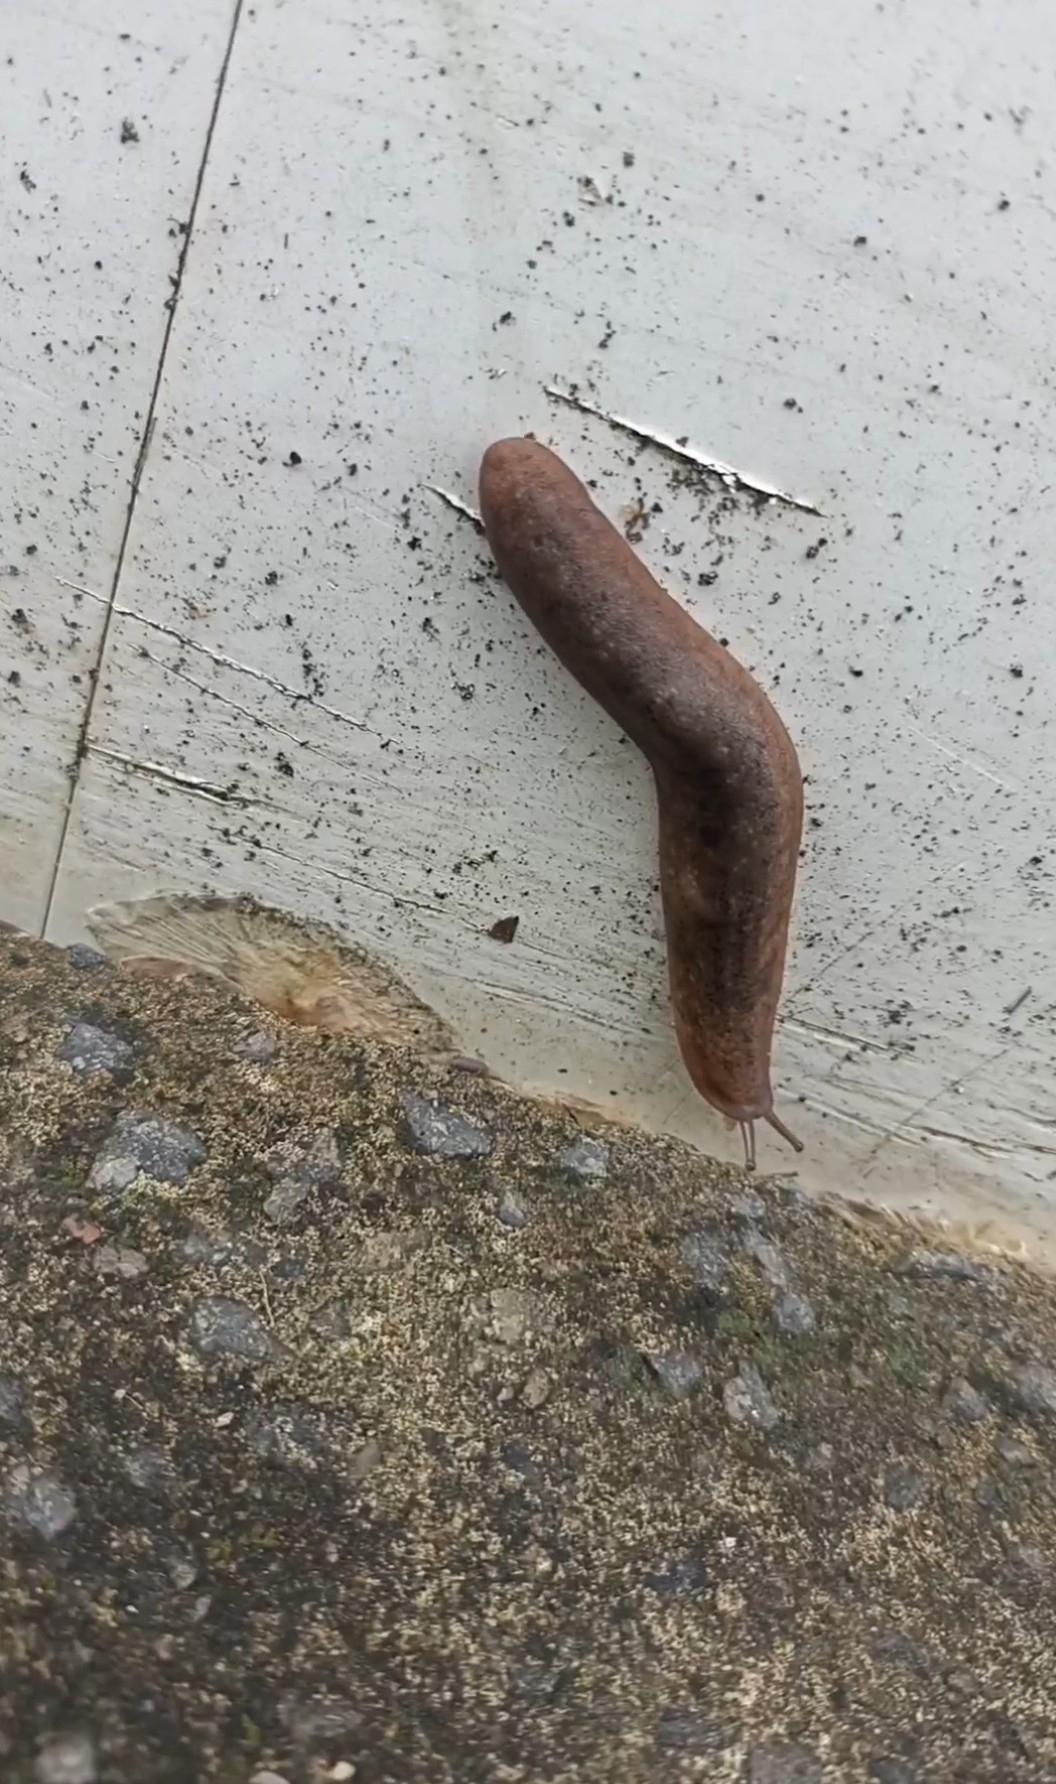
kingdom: Animalia
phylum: Mollusca
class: Gastropoda
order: Systellommatophora
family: Veronicellidae
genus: Sarasinula
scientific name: Sarasinula plebeia
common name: Caribbean leatherleaf
